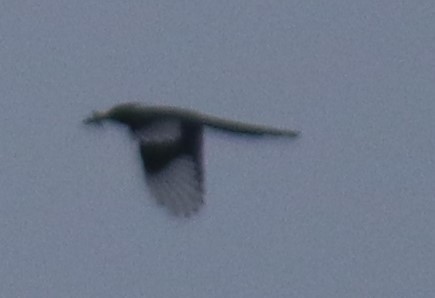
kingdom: Animalia
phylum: Chordata
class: Aves
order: Passeriformes
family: Corvidae
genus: Pica
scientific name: Pica hudsonia
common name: Black-billed magpie
